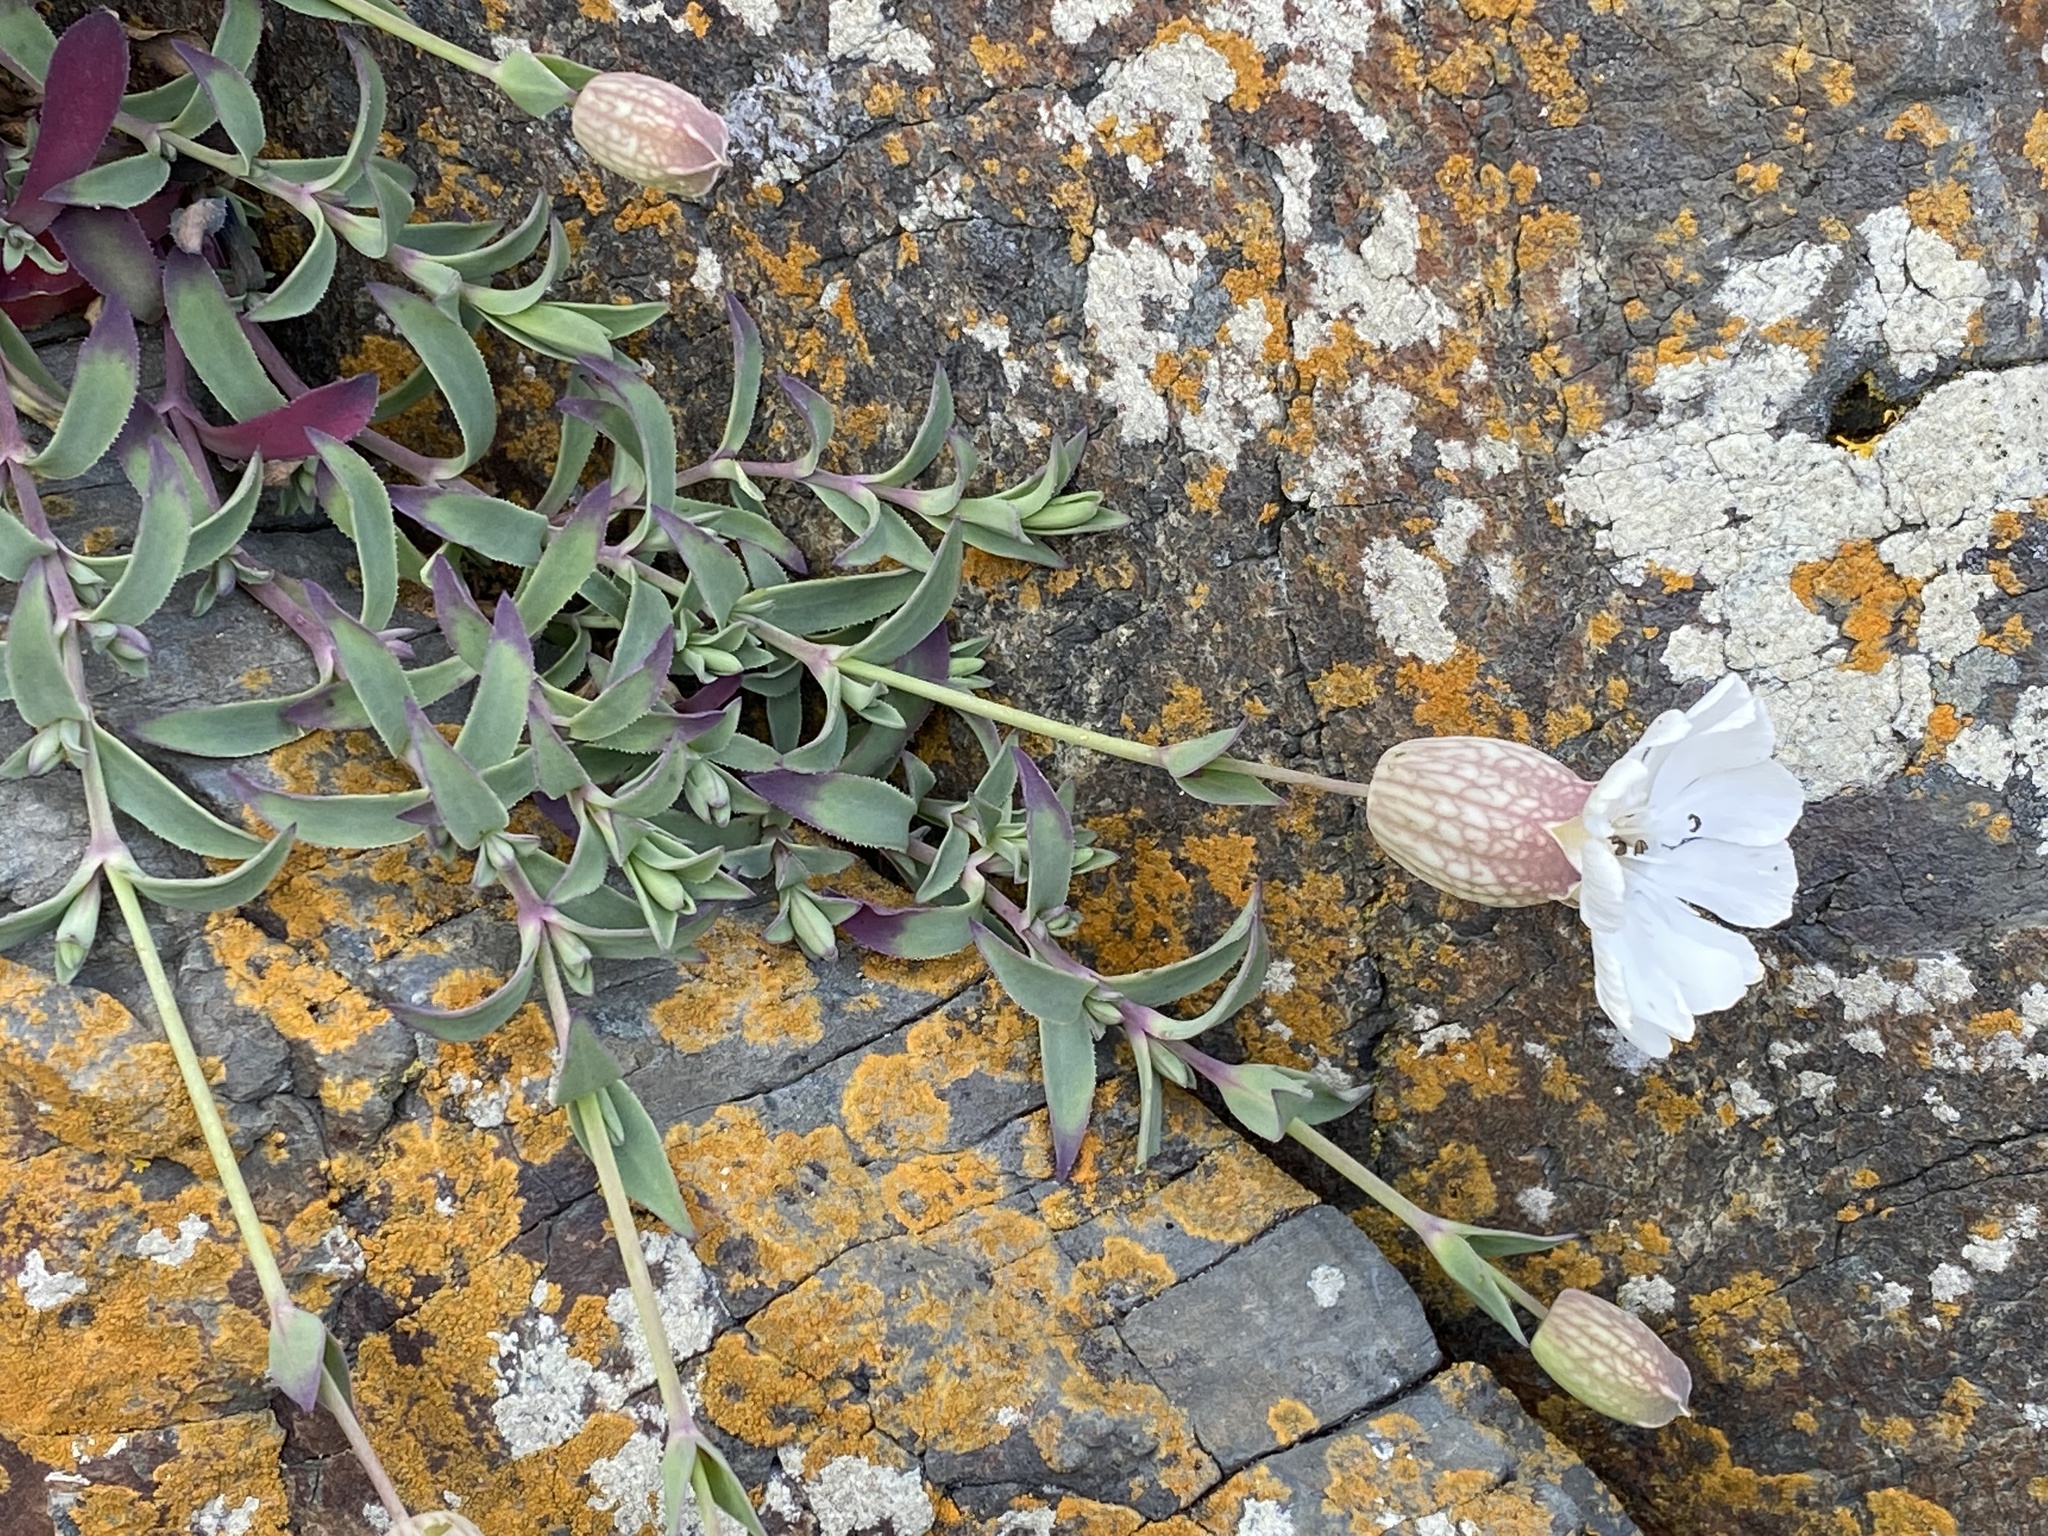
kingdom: Plantae
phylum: Tracheophyta
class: Magnoliopsida
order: Caryophyllales
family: Caryophyllaceae
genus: Silene
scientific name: Silene uniflora
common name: Sea campion
